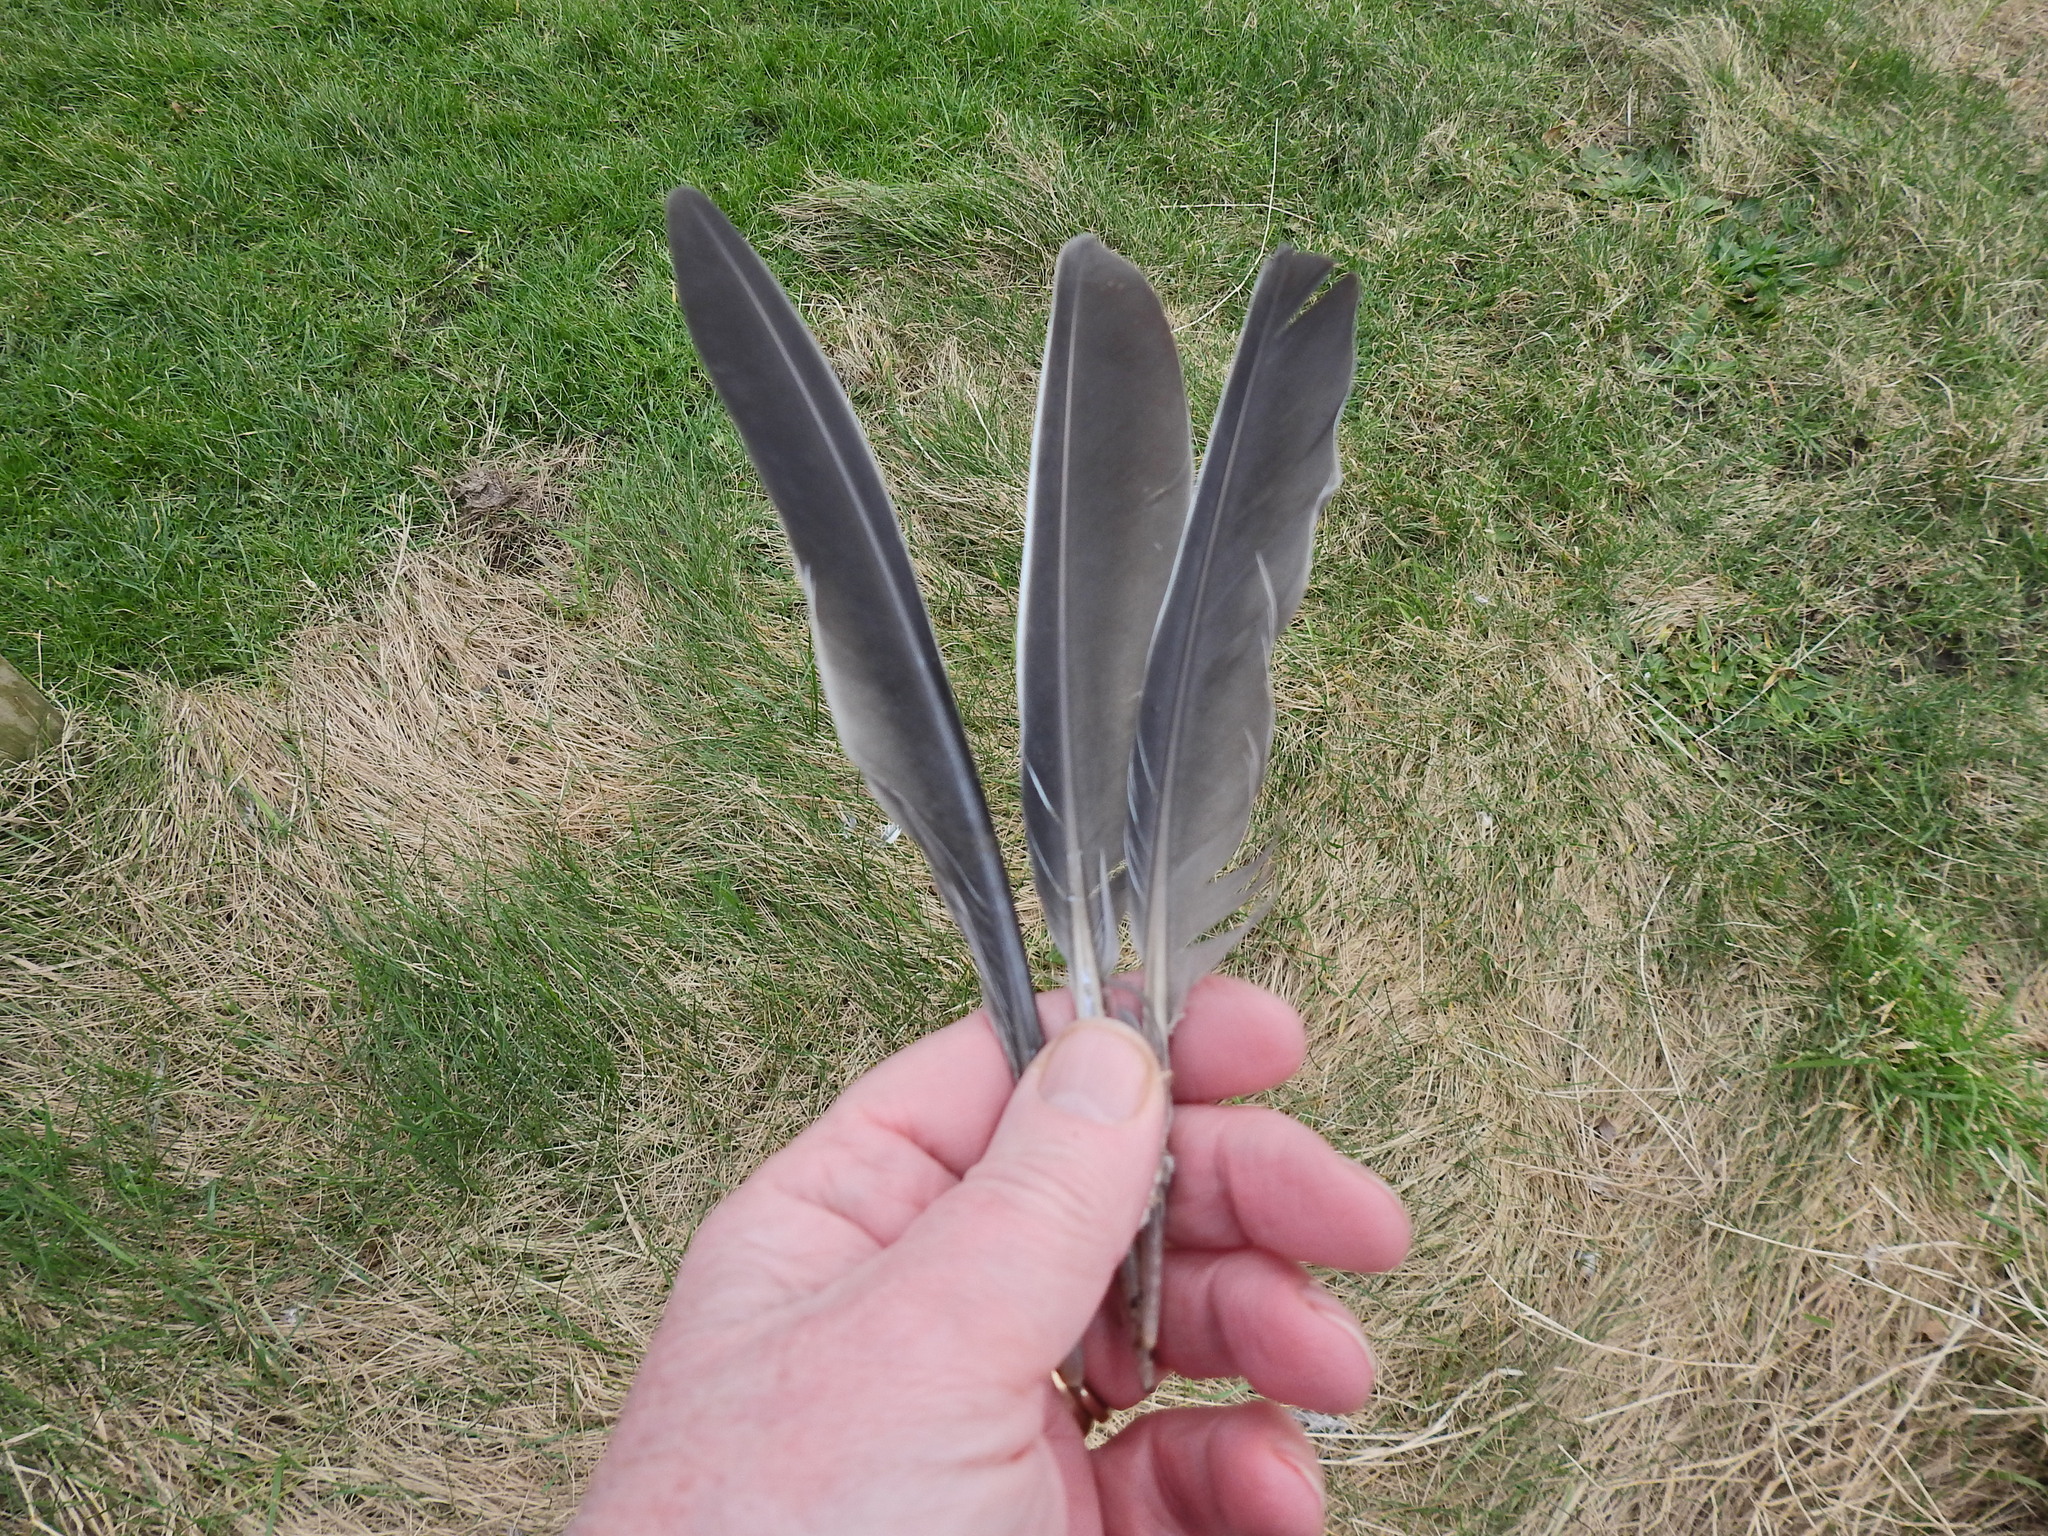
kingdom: Animalia
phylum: Chordata
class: Aves
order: Columbiformes
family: Columbidae
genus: Columba
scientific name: Columba palumbus
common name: Common wood pigeon
